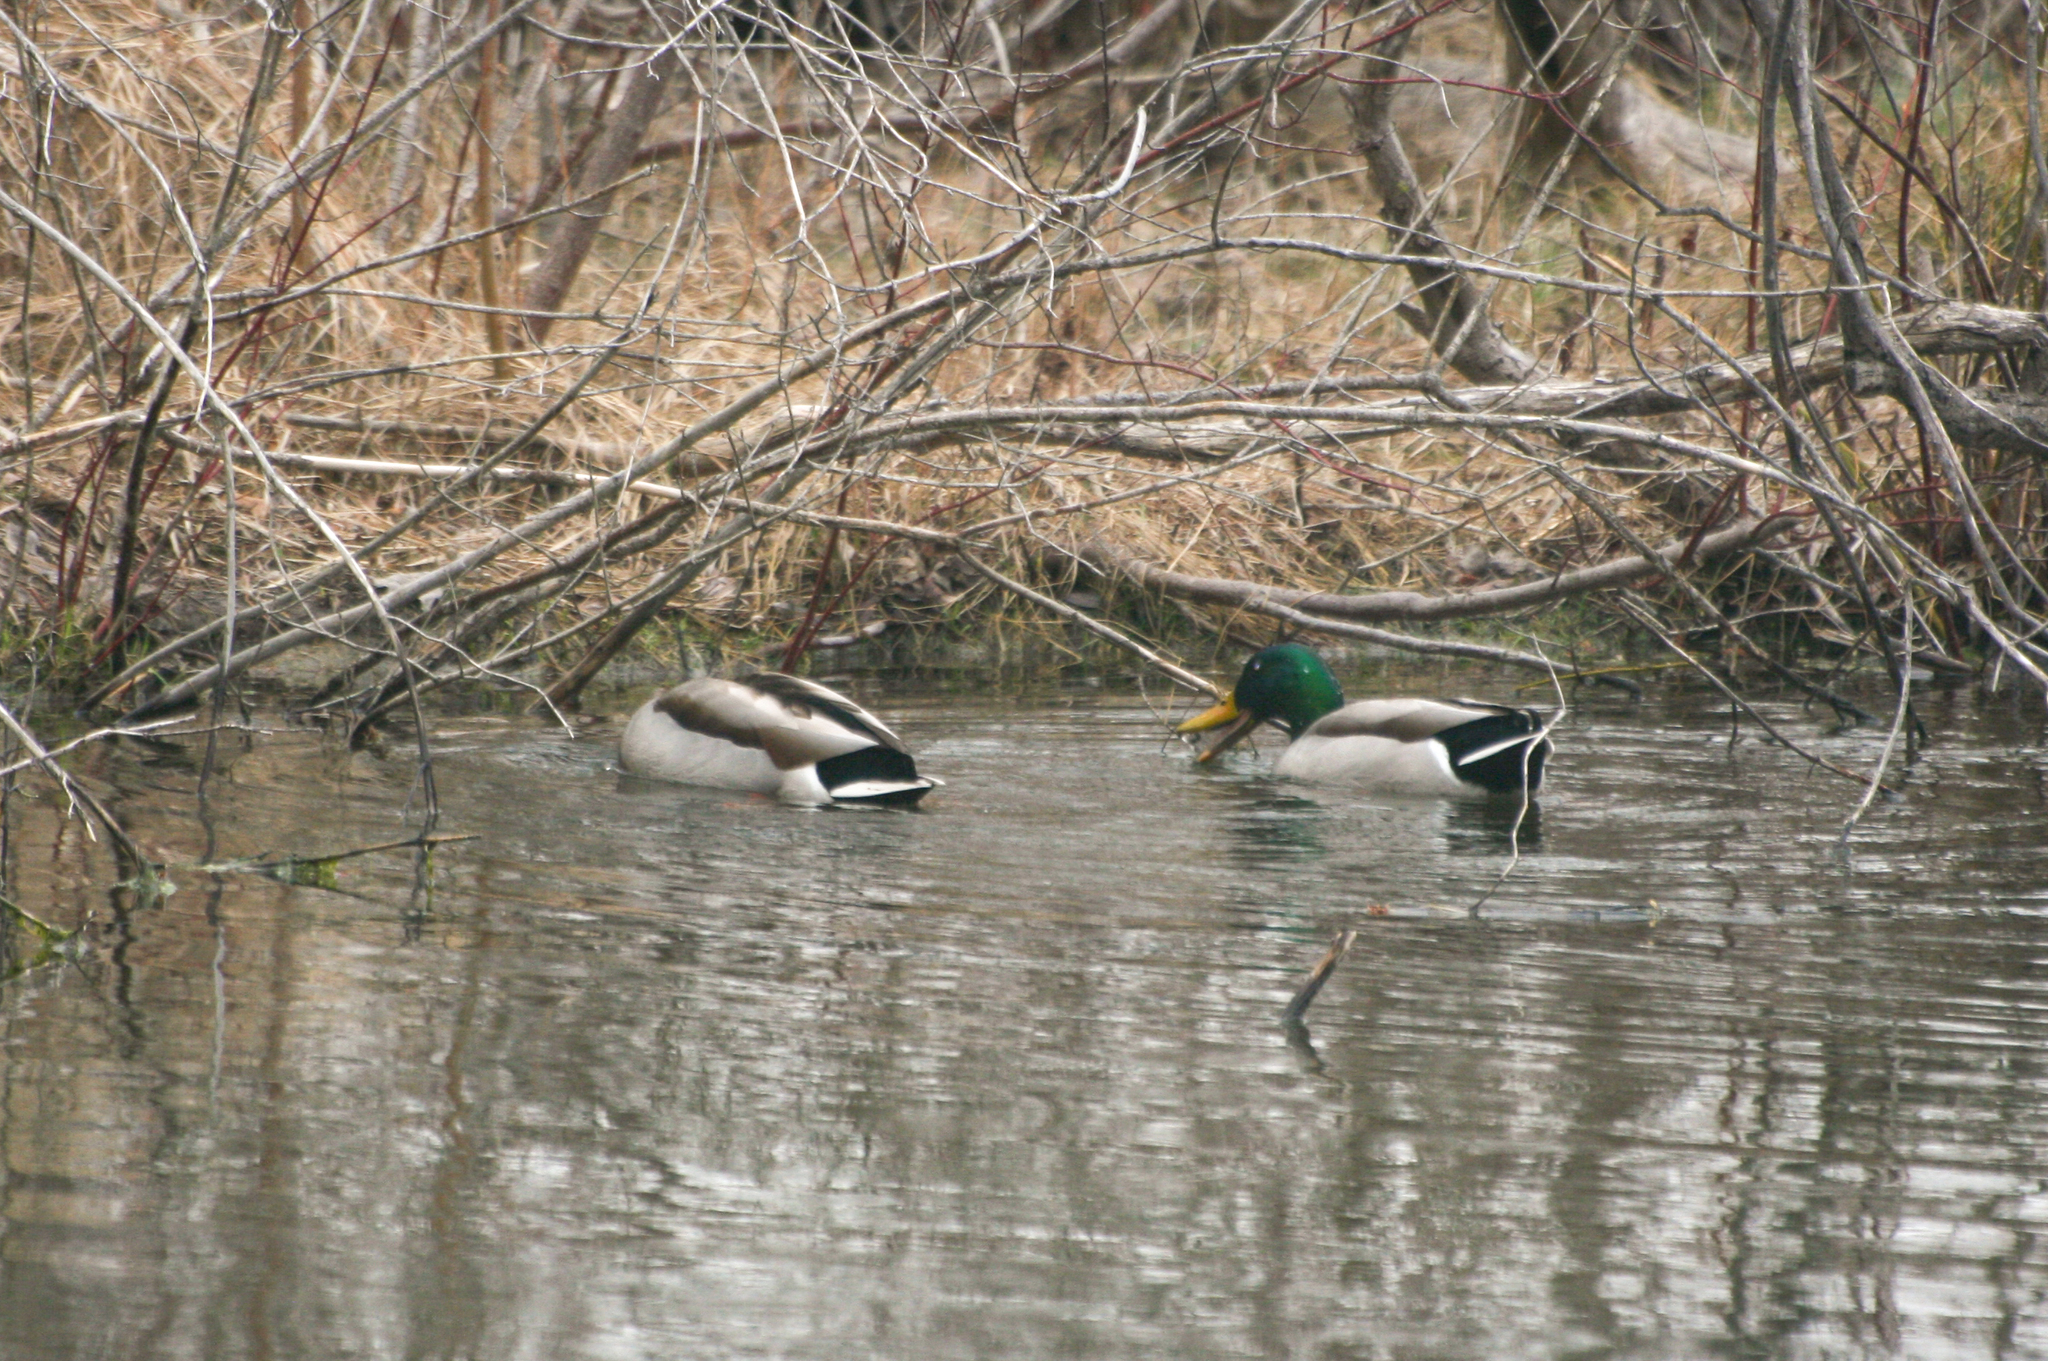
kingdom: Animalia
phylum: Chordata
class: Aves
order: Anseriformes
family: Anatidae
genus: Anas
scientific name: Anas platyrhynchos
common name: Mallard
